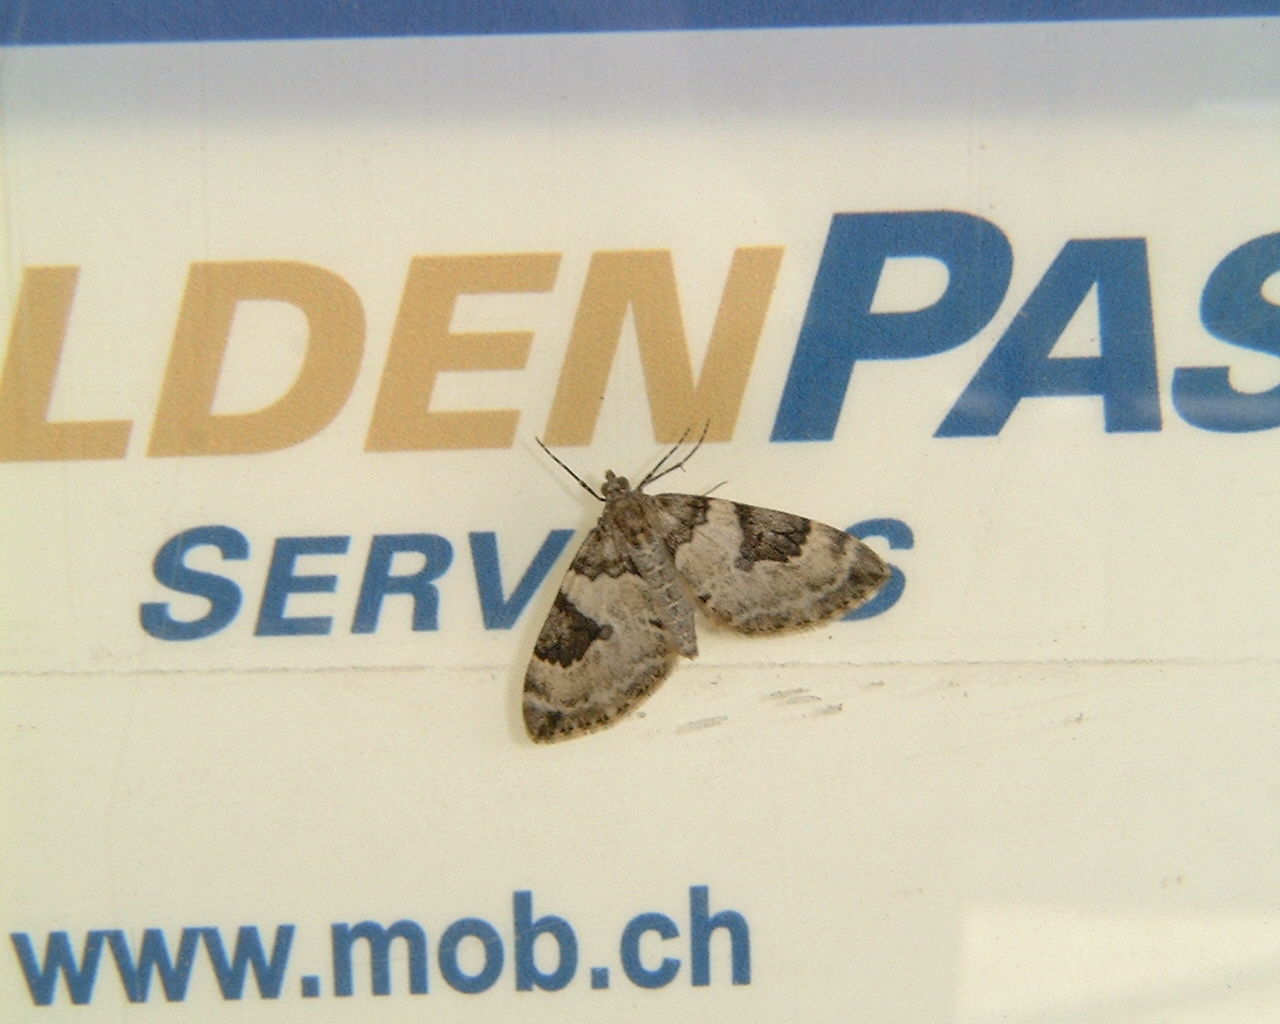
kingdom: Animalia
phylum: Arthropoda
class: Insecta
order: Lepidoptera
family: Geometridae
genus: Thera
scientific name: Thera vetustata
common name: Fir carpet
